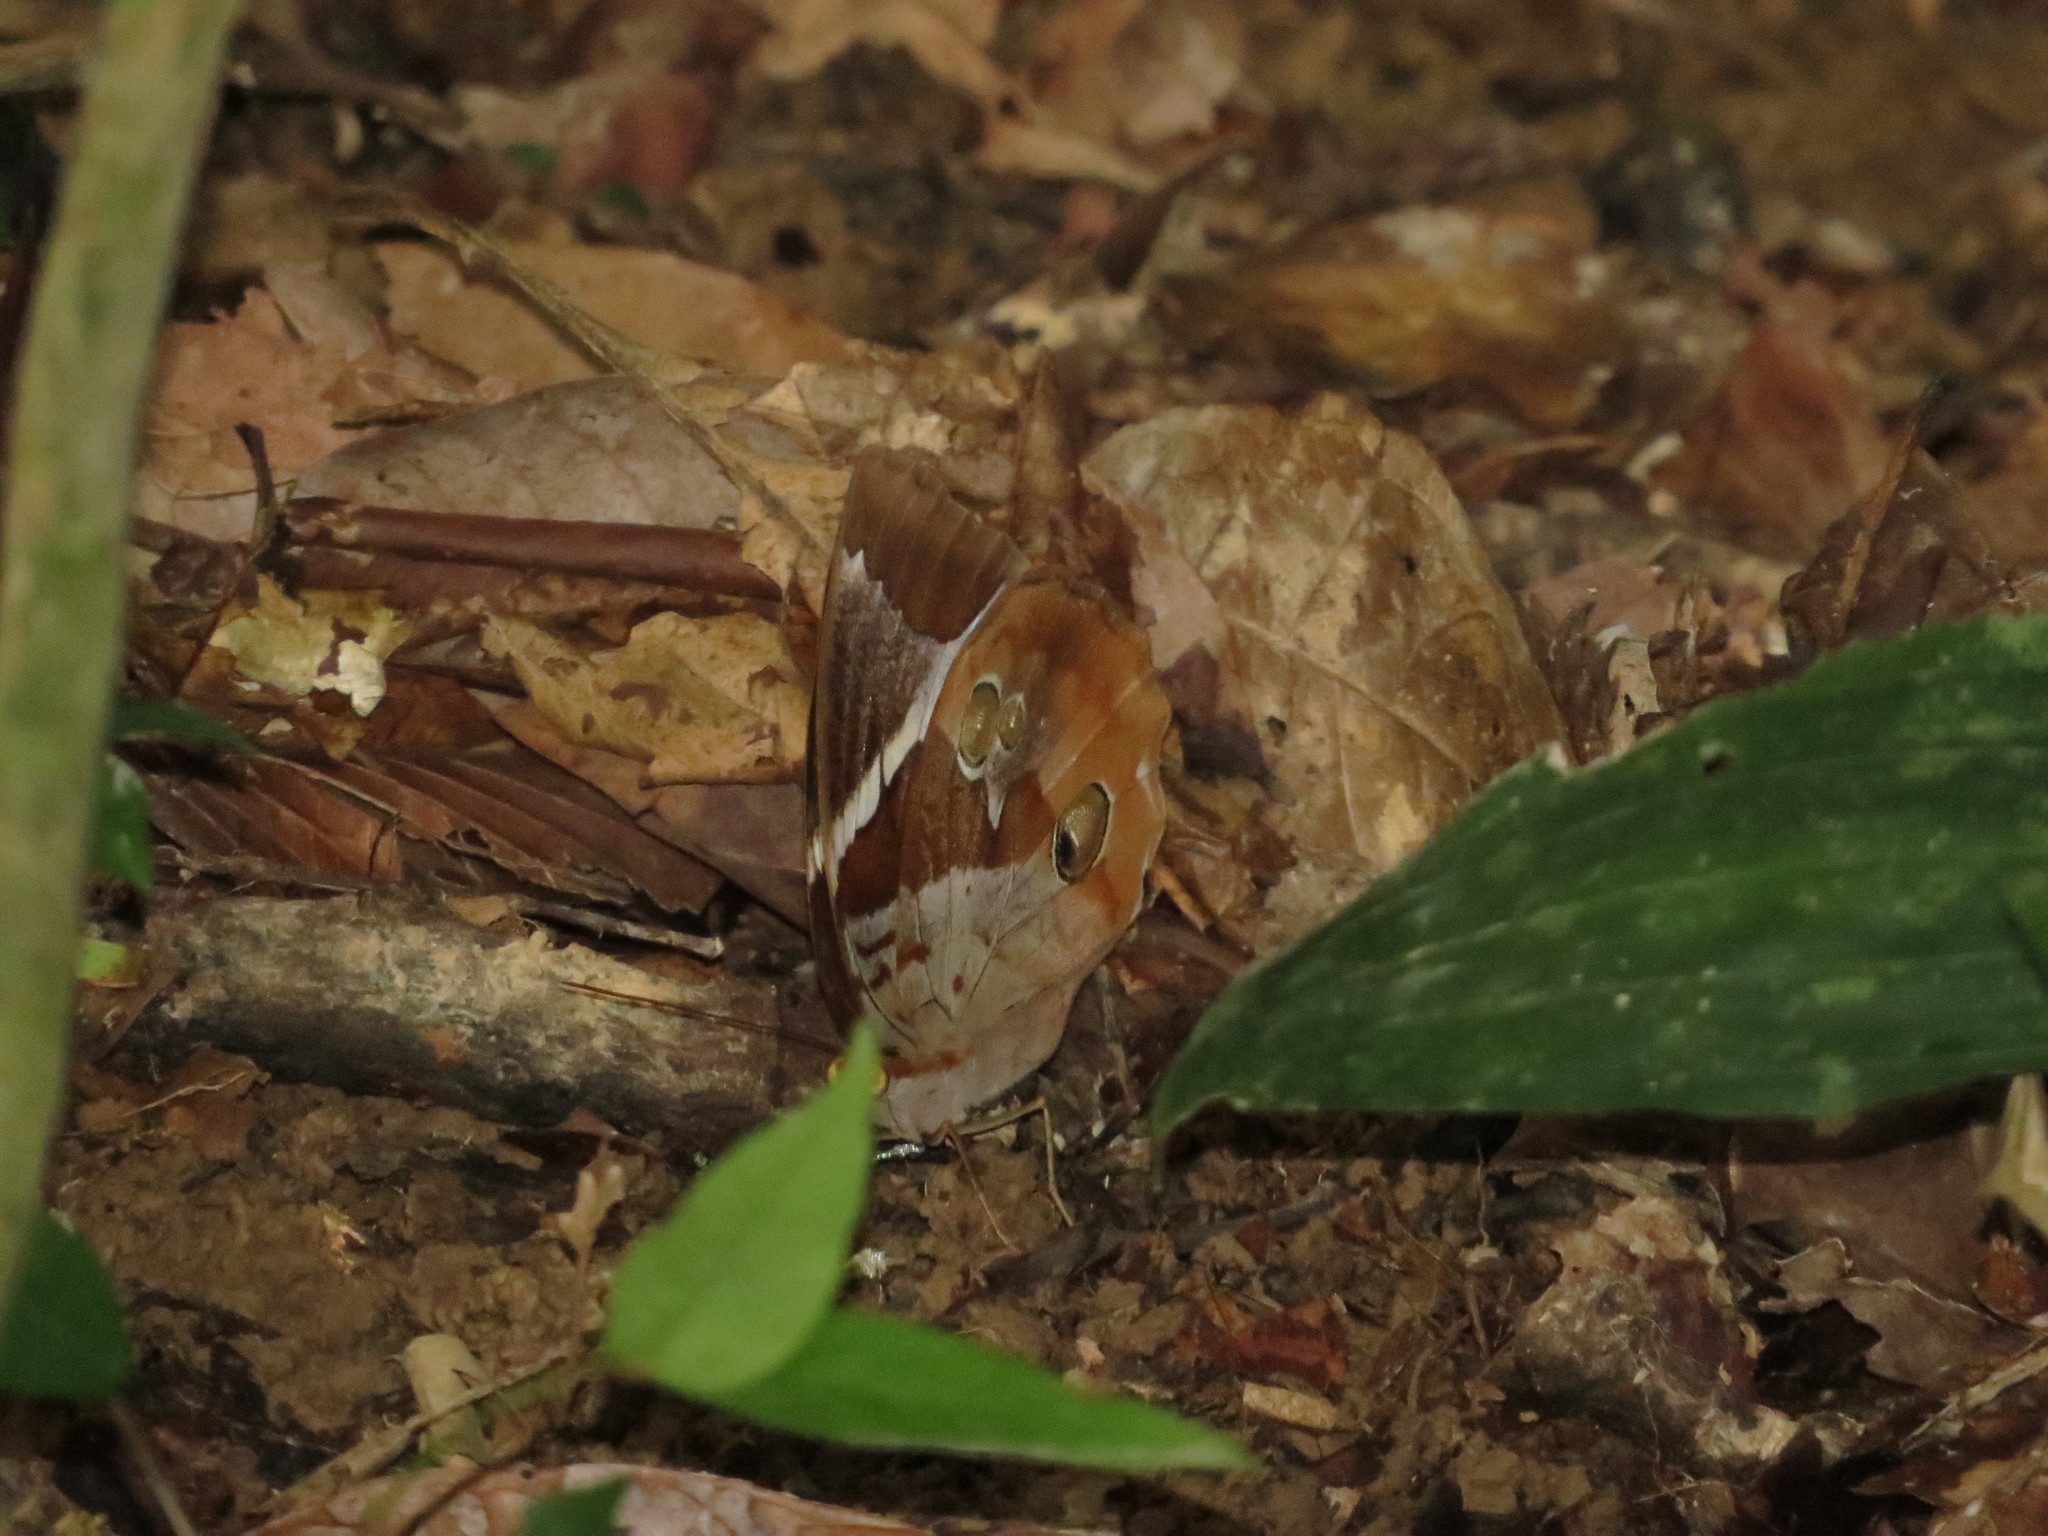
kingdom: Animalia
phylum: Arthropoda
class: Insecta
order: Lepidoptera
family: Nymphalidae
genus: Thauria
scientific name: Thauria aliris
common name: Tufted jungle king
